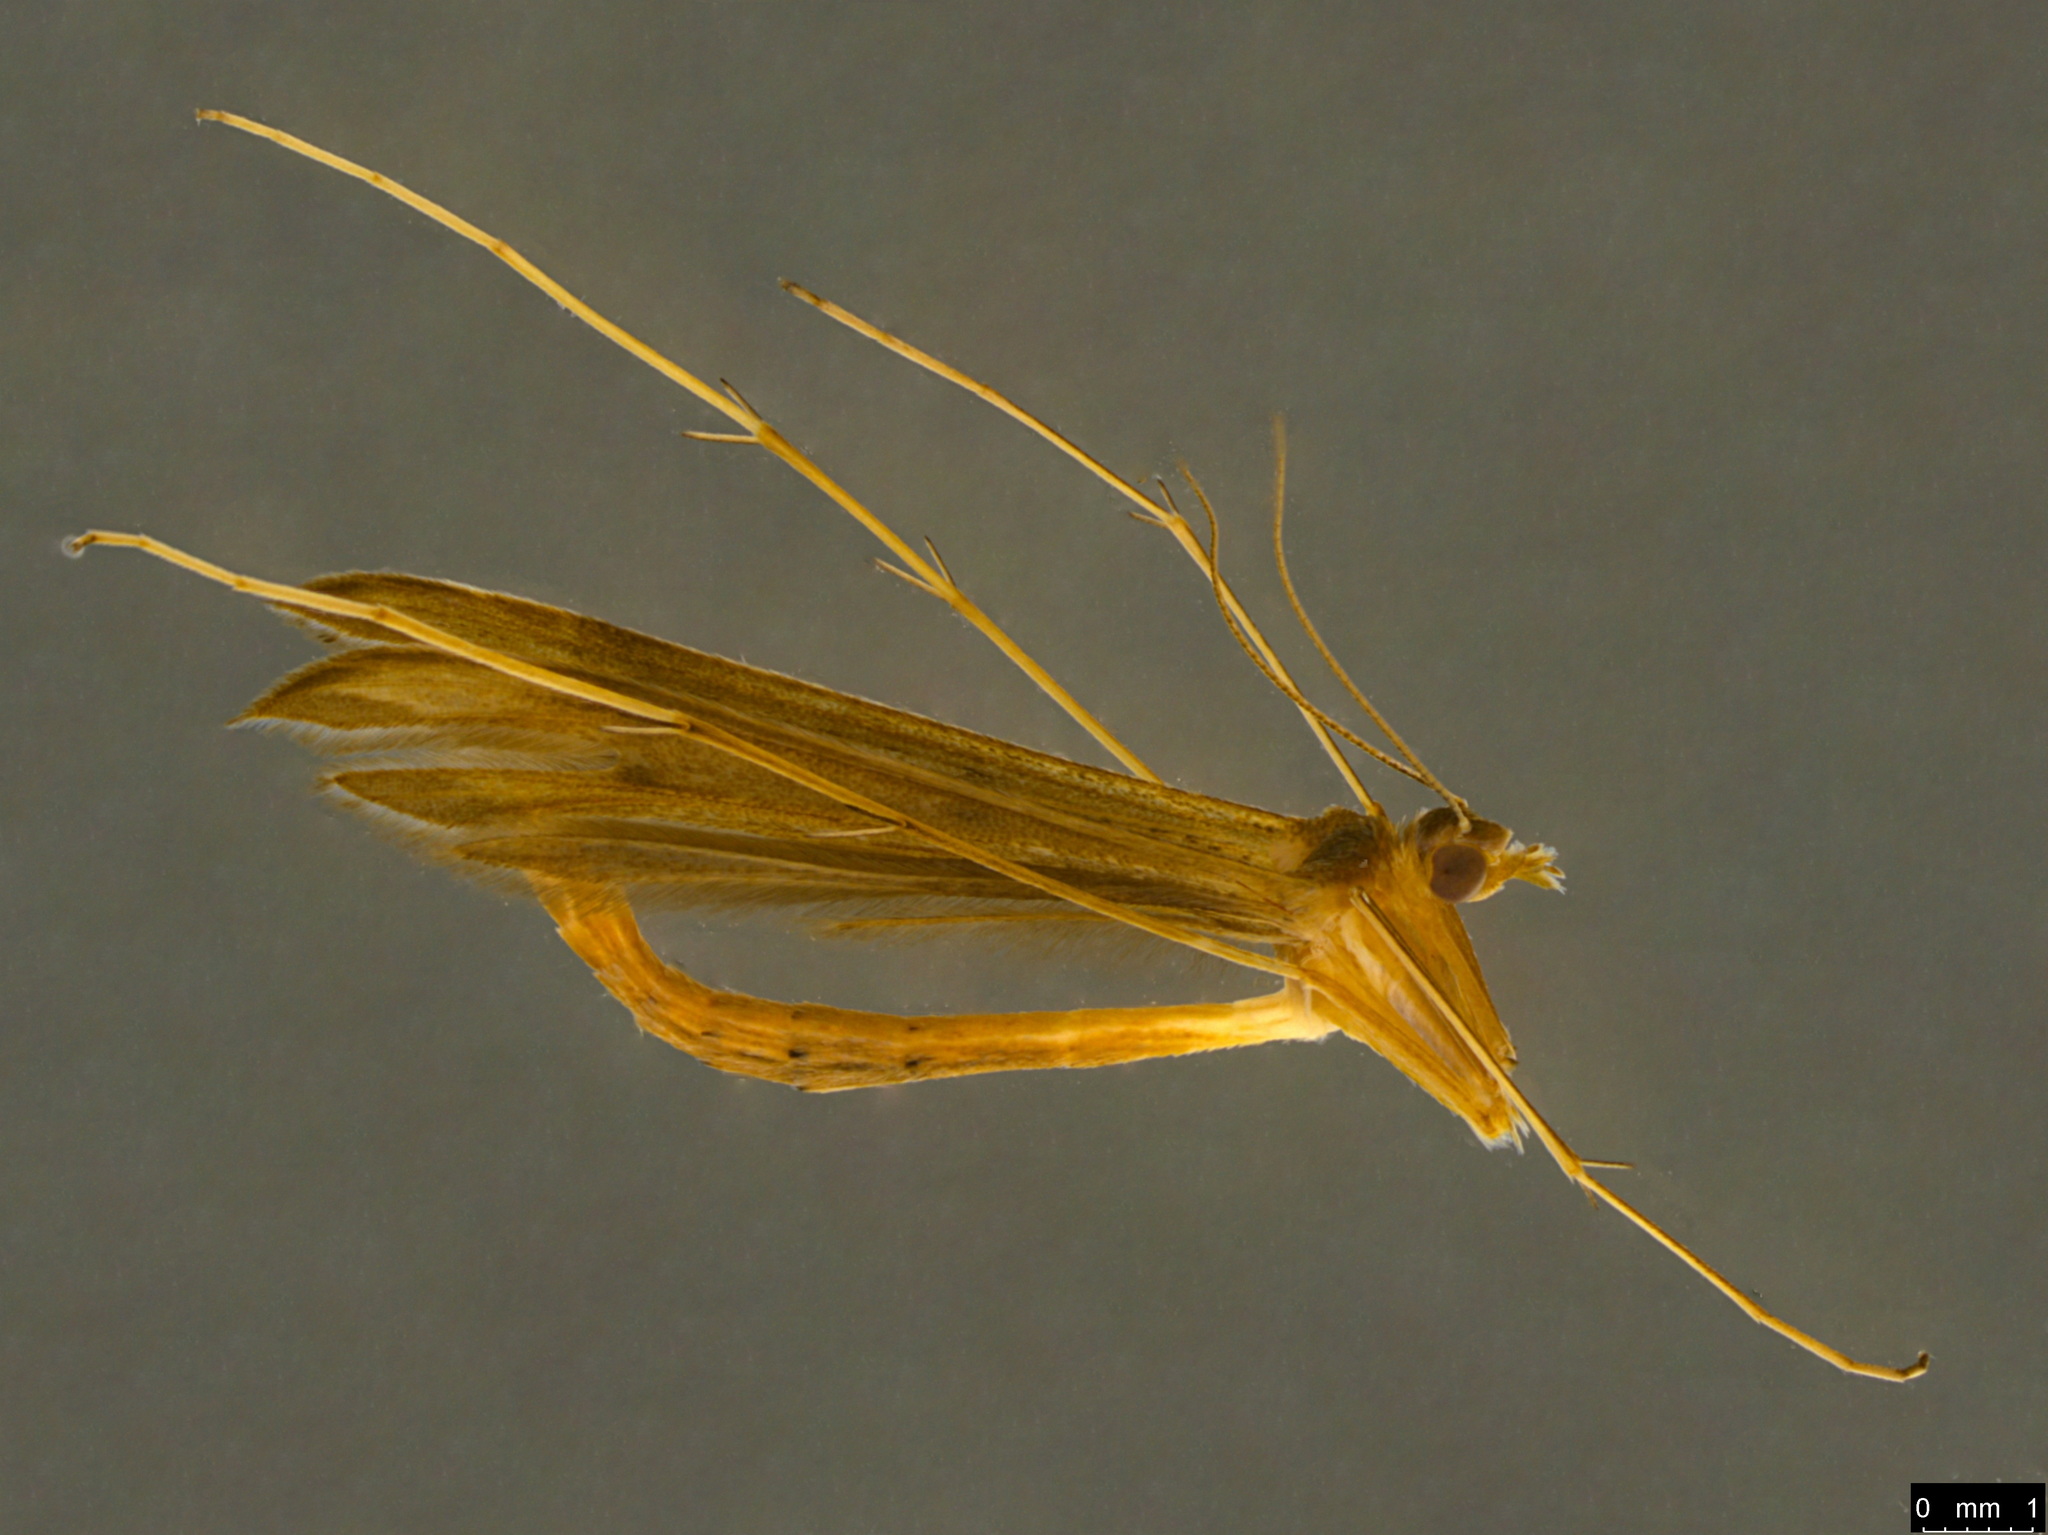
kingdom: Animalia
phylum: Arthropoda
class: Insecta
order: Lepidoptera
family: Pterophoridae
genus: Stenoptilia
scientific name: Stenoptilia zophodactylus
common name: Dowdy plume
